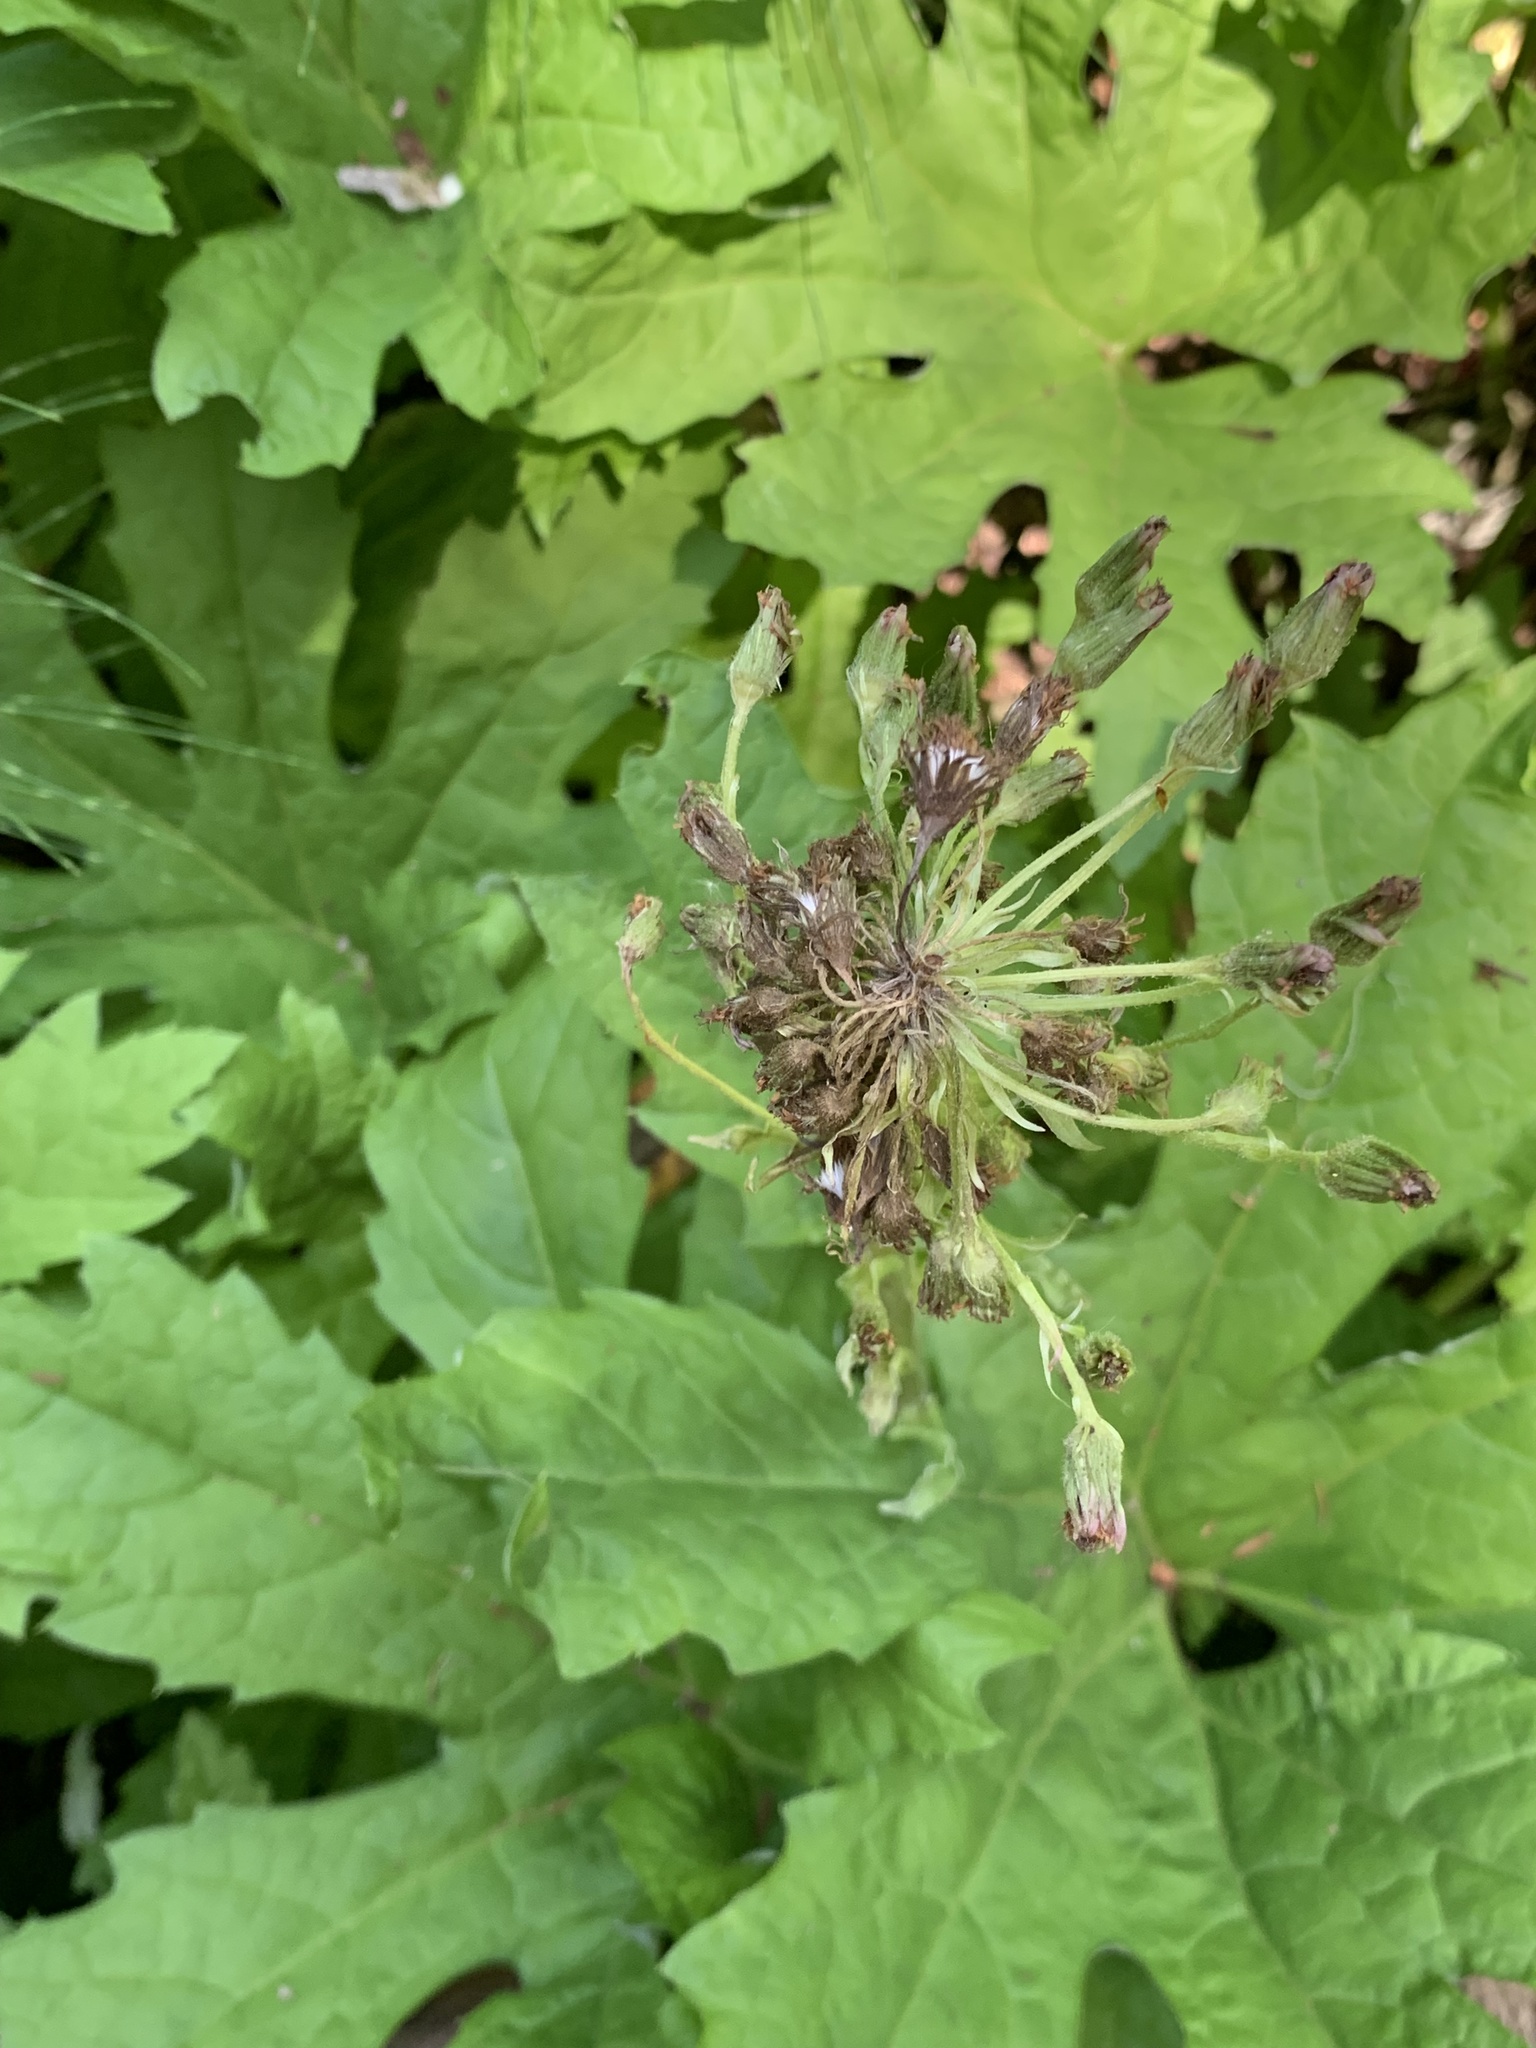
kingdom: Plantae
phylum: Tracheophyta
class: Magnoliopsida
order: Asterales
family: Asteraceae
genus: Petasites
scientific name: Petasites frigidus
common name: Arctic butterbur
